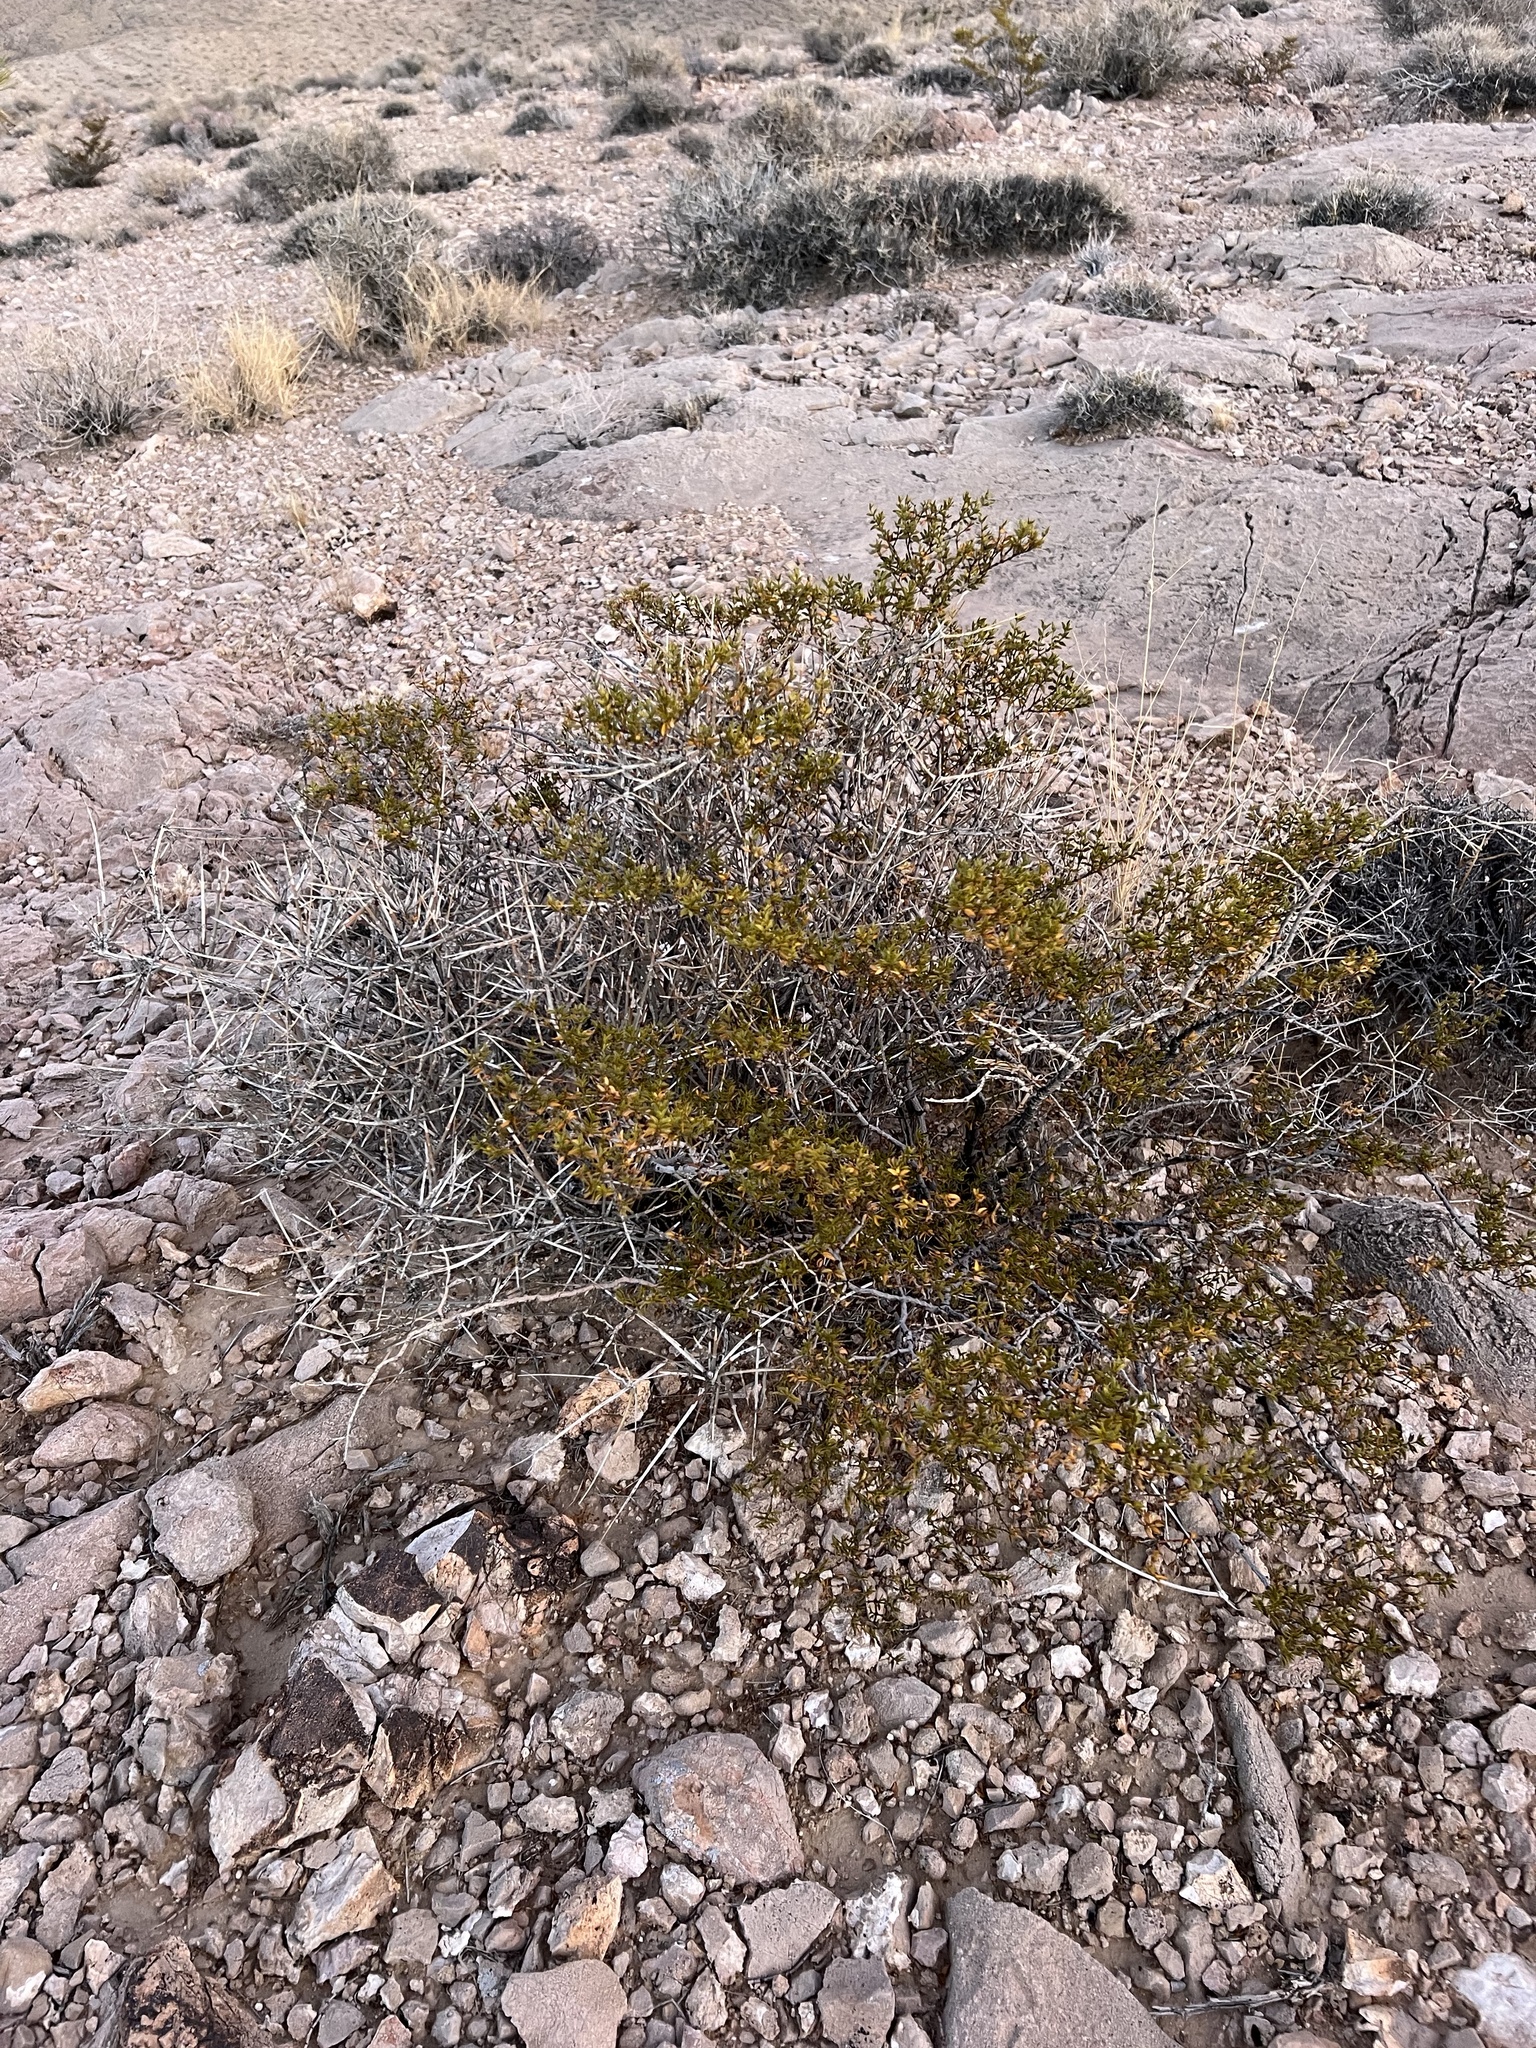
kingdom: Plantae
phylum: Tracheophyta
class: Magnoliopsida
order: Zygophyllales
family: Zygophyllaceae
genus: Larrea
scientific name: Larrea tridentata
